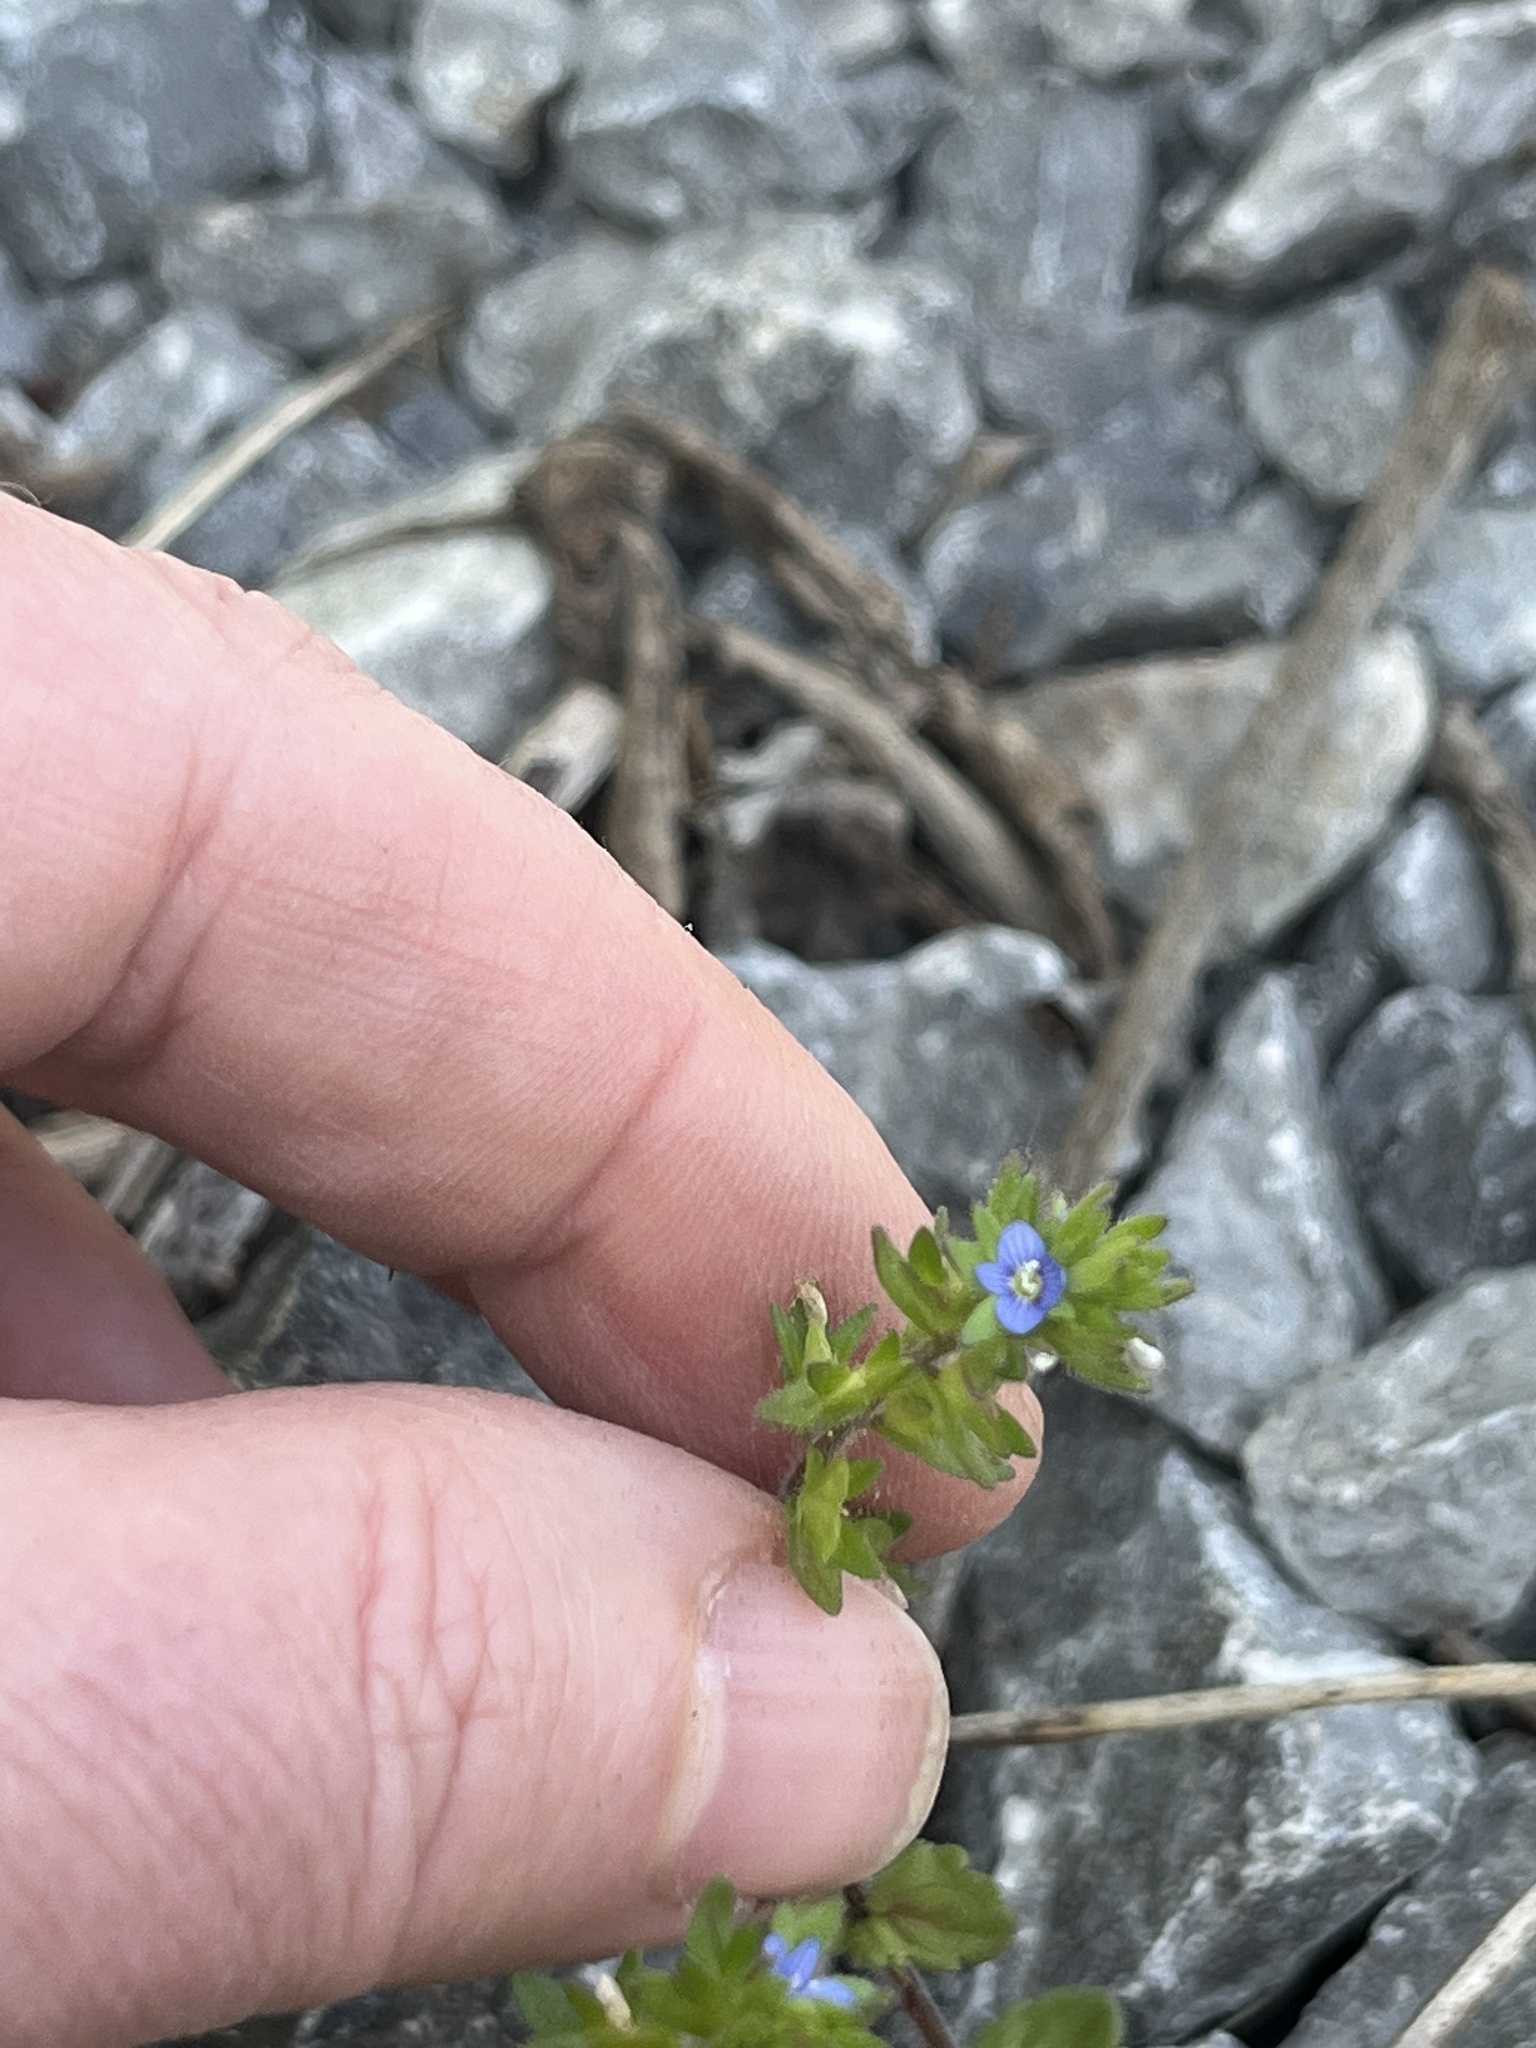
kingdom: Plantae
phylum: Tracheophyta
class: Magnoliopsida
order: Lamiales
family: Plantaginaceae
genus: Veronica
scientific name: Veronica arvensis
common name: Corn speedwell
